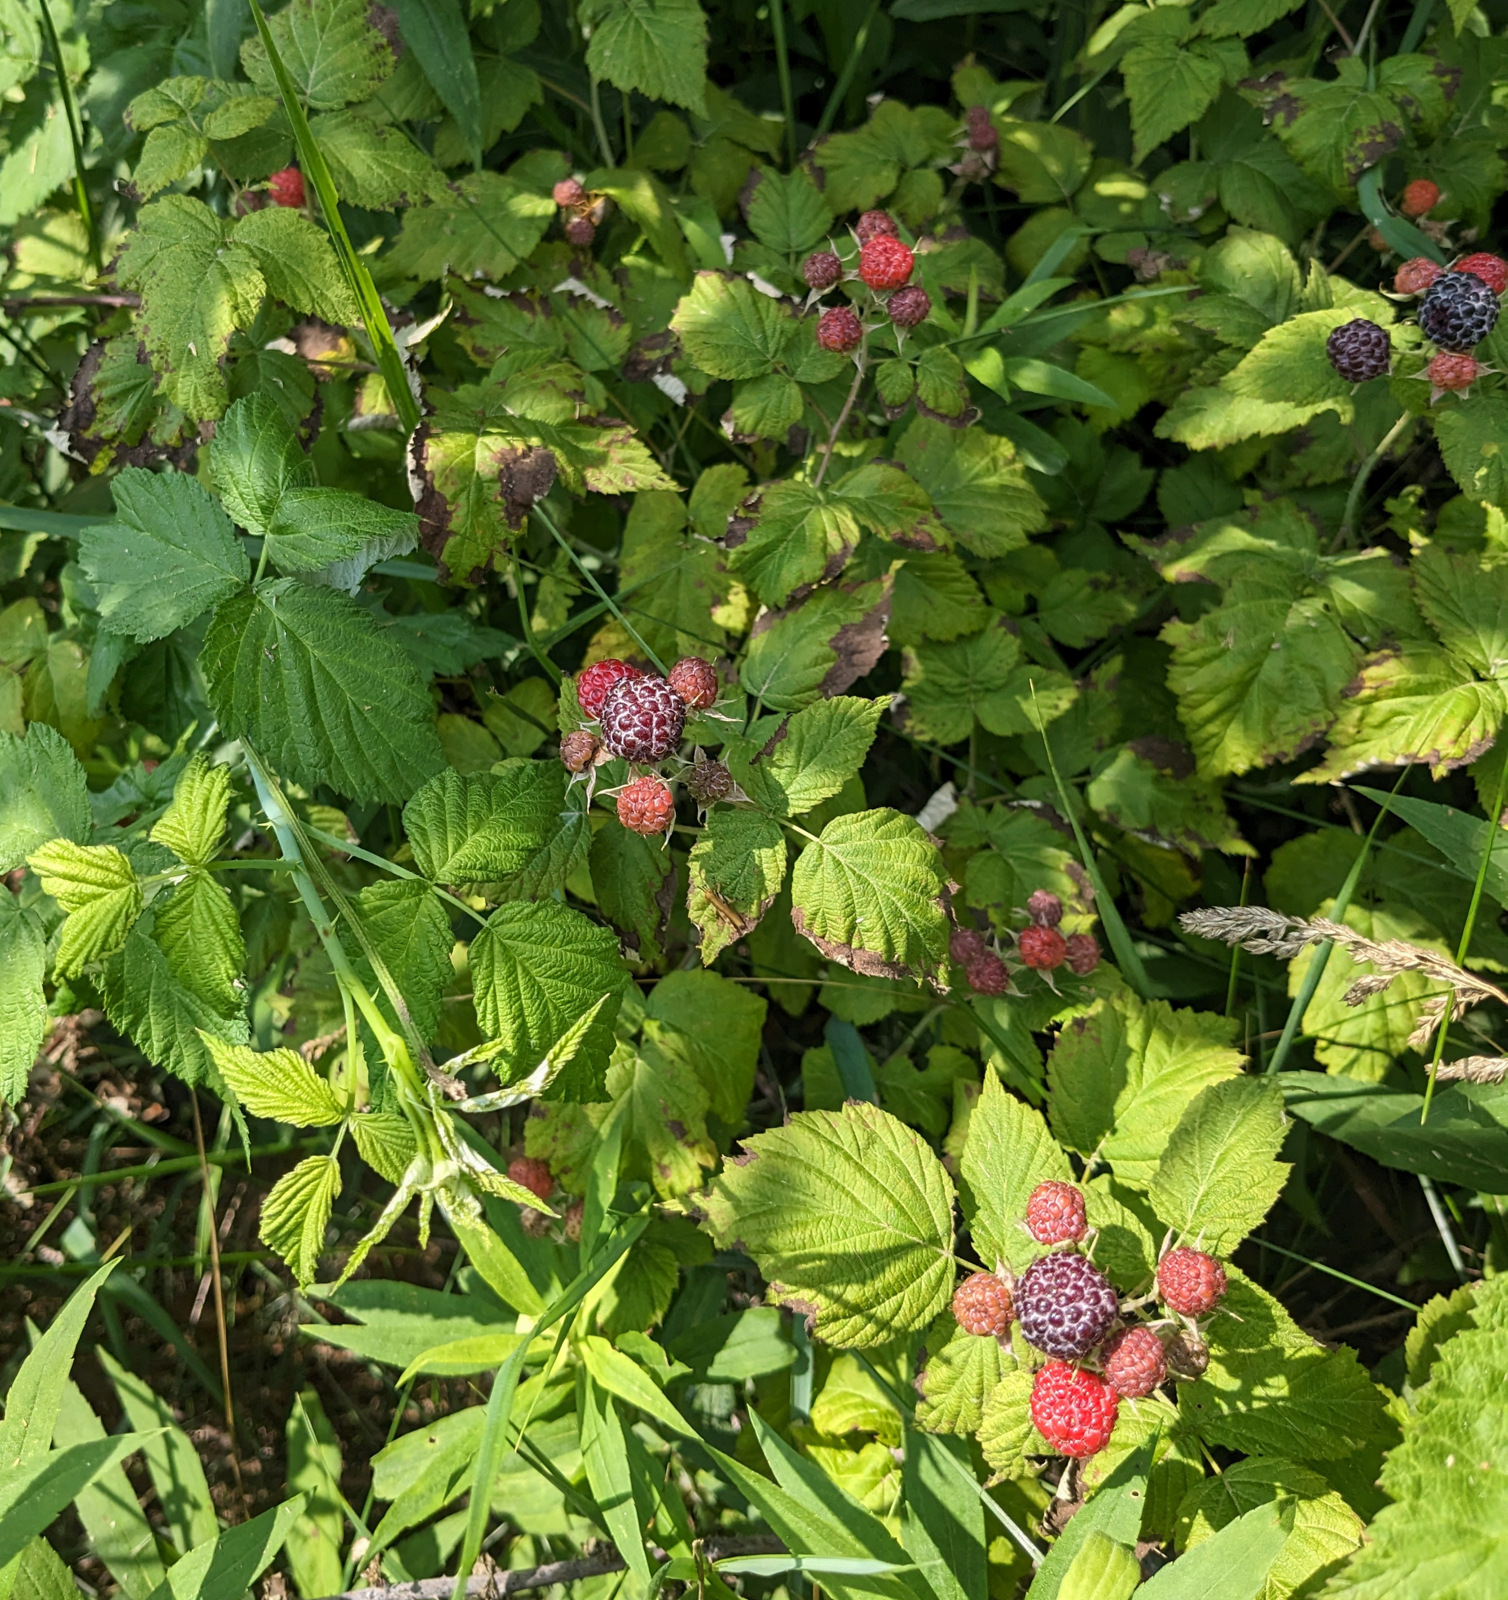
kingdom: Plantae
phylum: Tracheophyta
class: Magnoliopsida
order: Rosales
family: Rosaceae
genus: Rubus
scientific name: Rubus occidentalis
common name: Black raspberry
